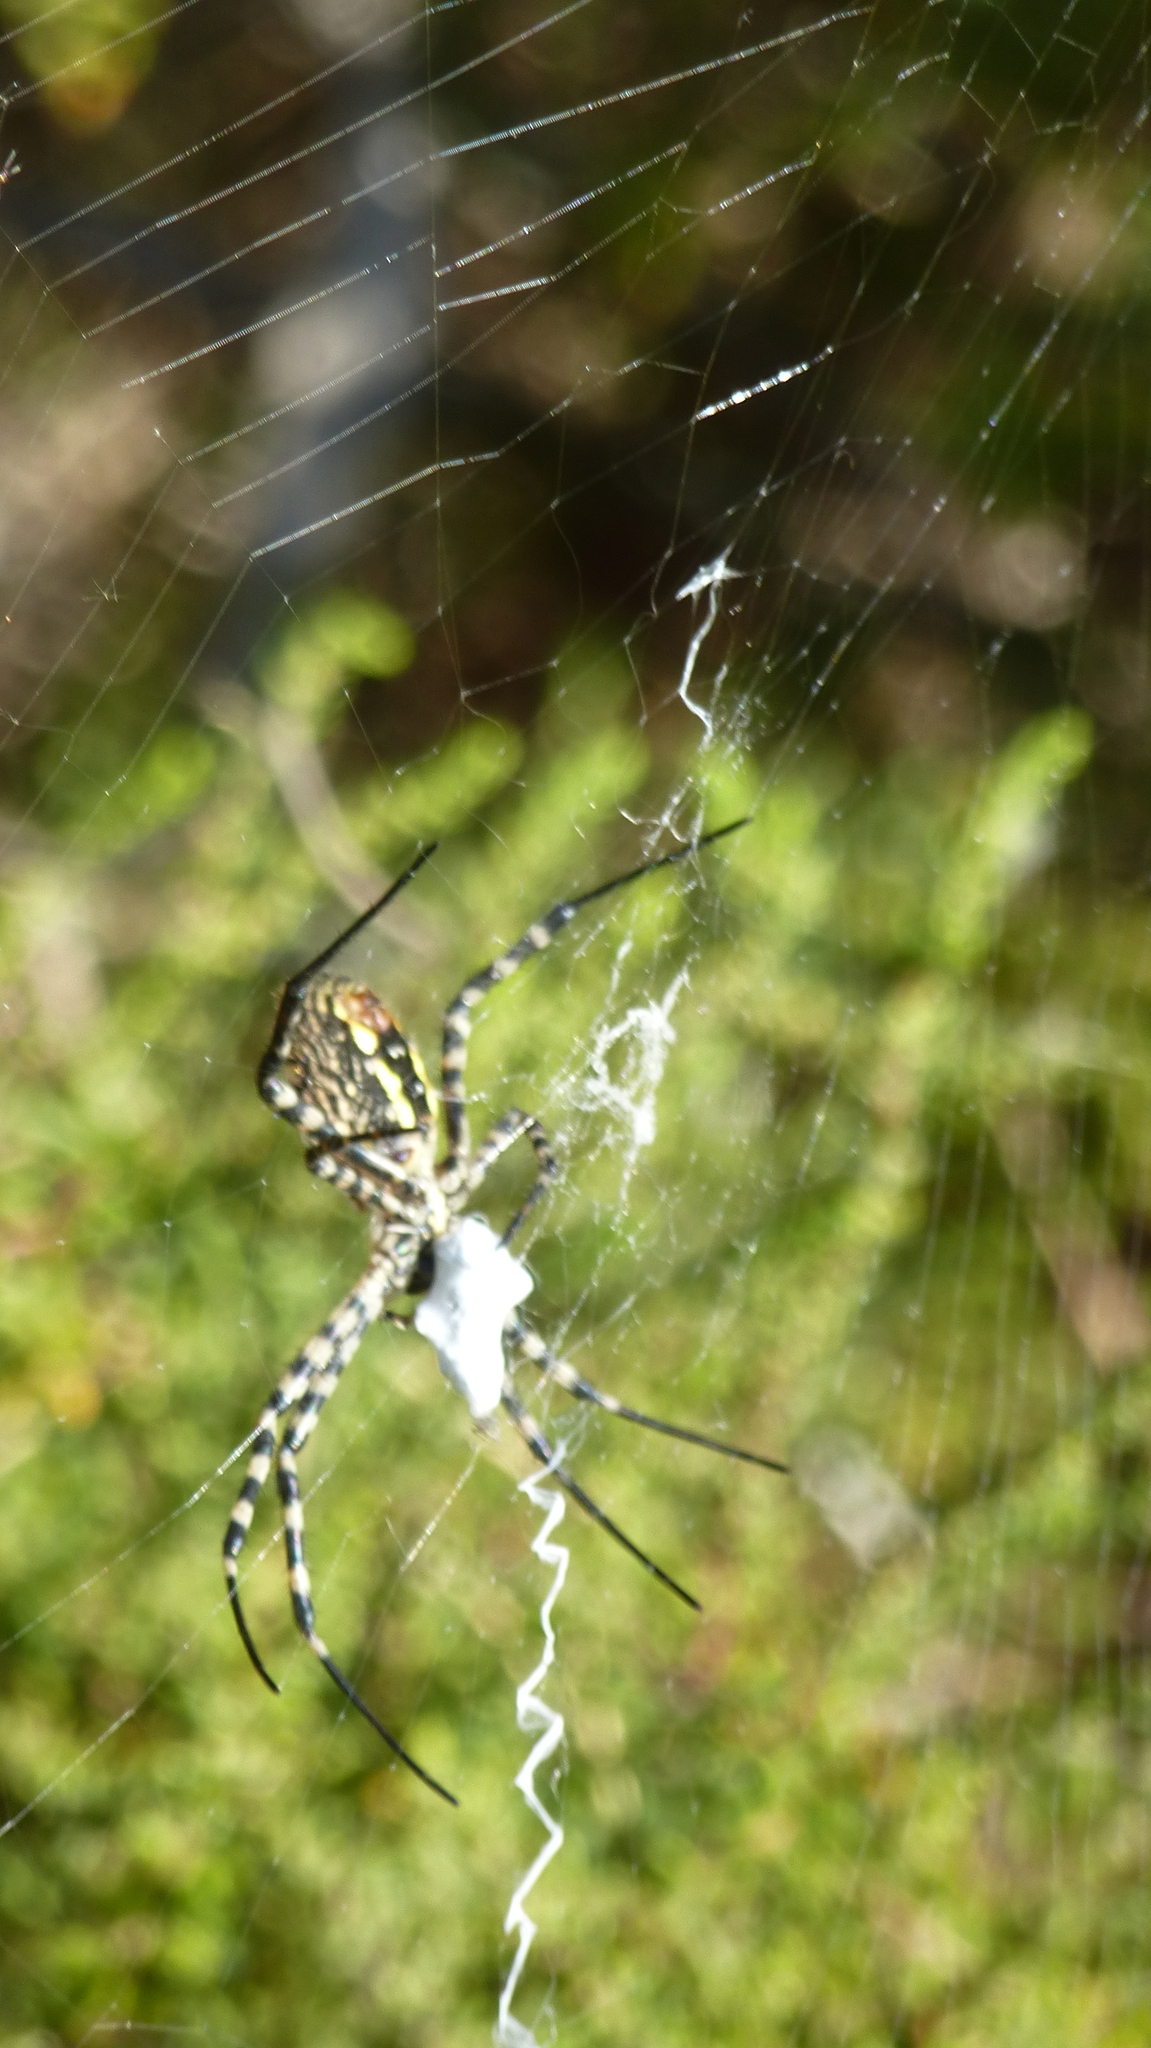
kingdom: Animalia
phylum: Arthropoda
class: Arachnida
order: Araneae
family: Araneidae
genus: Argiope
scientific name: Argiope trifasciata
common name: Banded garden spider
